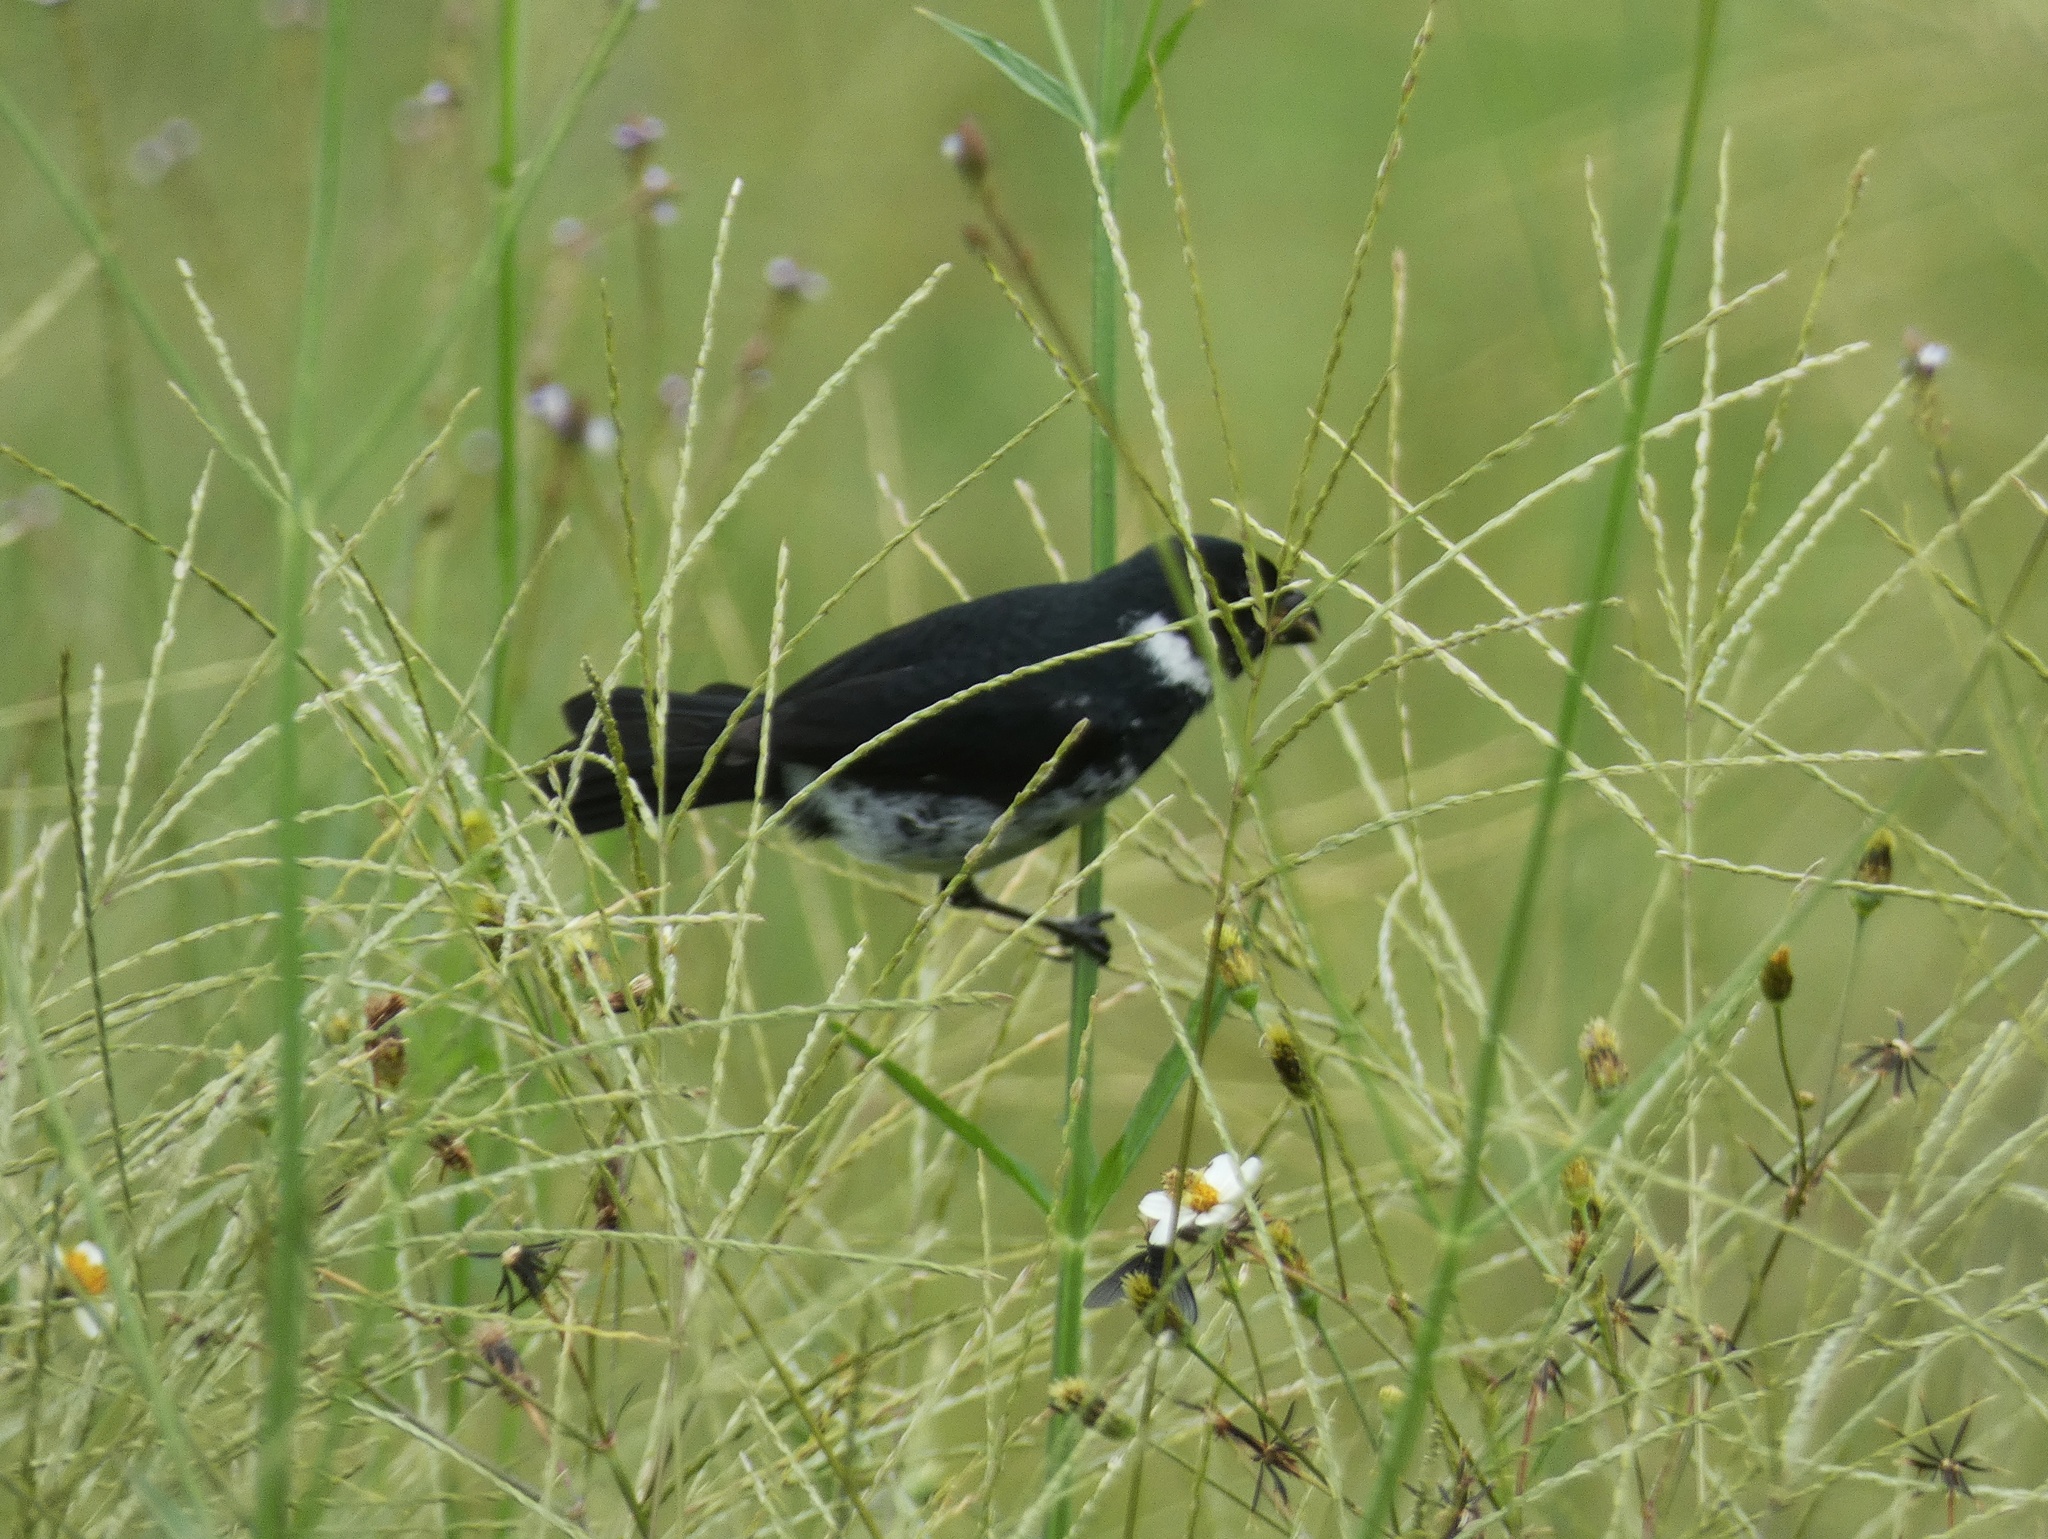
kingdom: Animalia
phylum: Chordata
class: Aves
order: Passeriformes
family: Thraupidae
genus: Sporophila
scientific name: Sporophila corvina
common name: Variable seedeater
